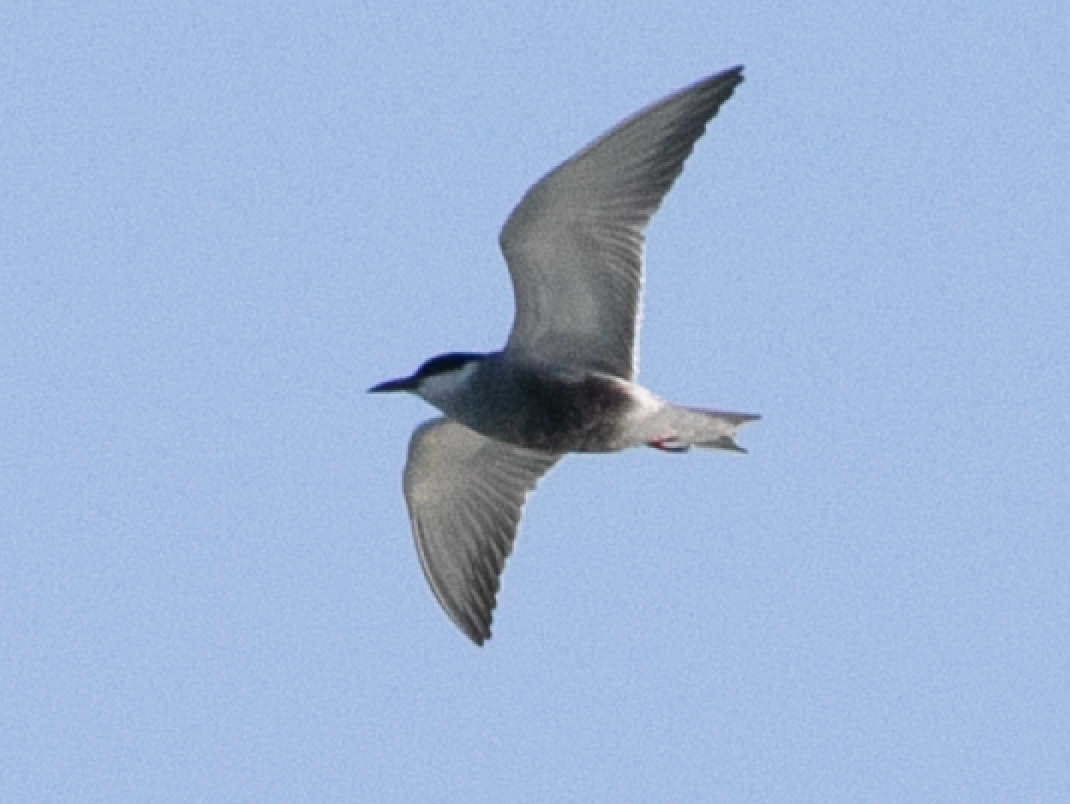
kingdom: Animalia
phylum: Chordata
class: Aves
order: Charadriiformes
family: Laridae
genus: Chlidonias
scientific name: Chlidonias hybrida
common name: Whiskered tern
